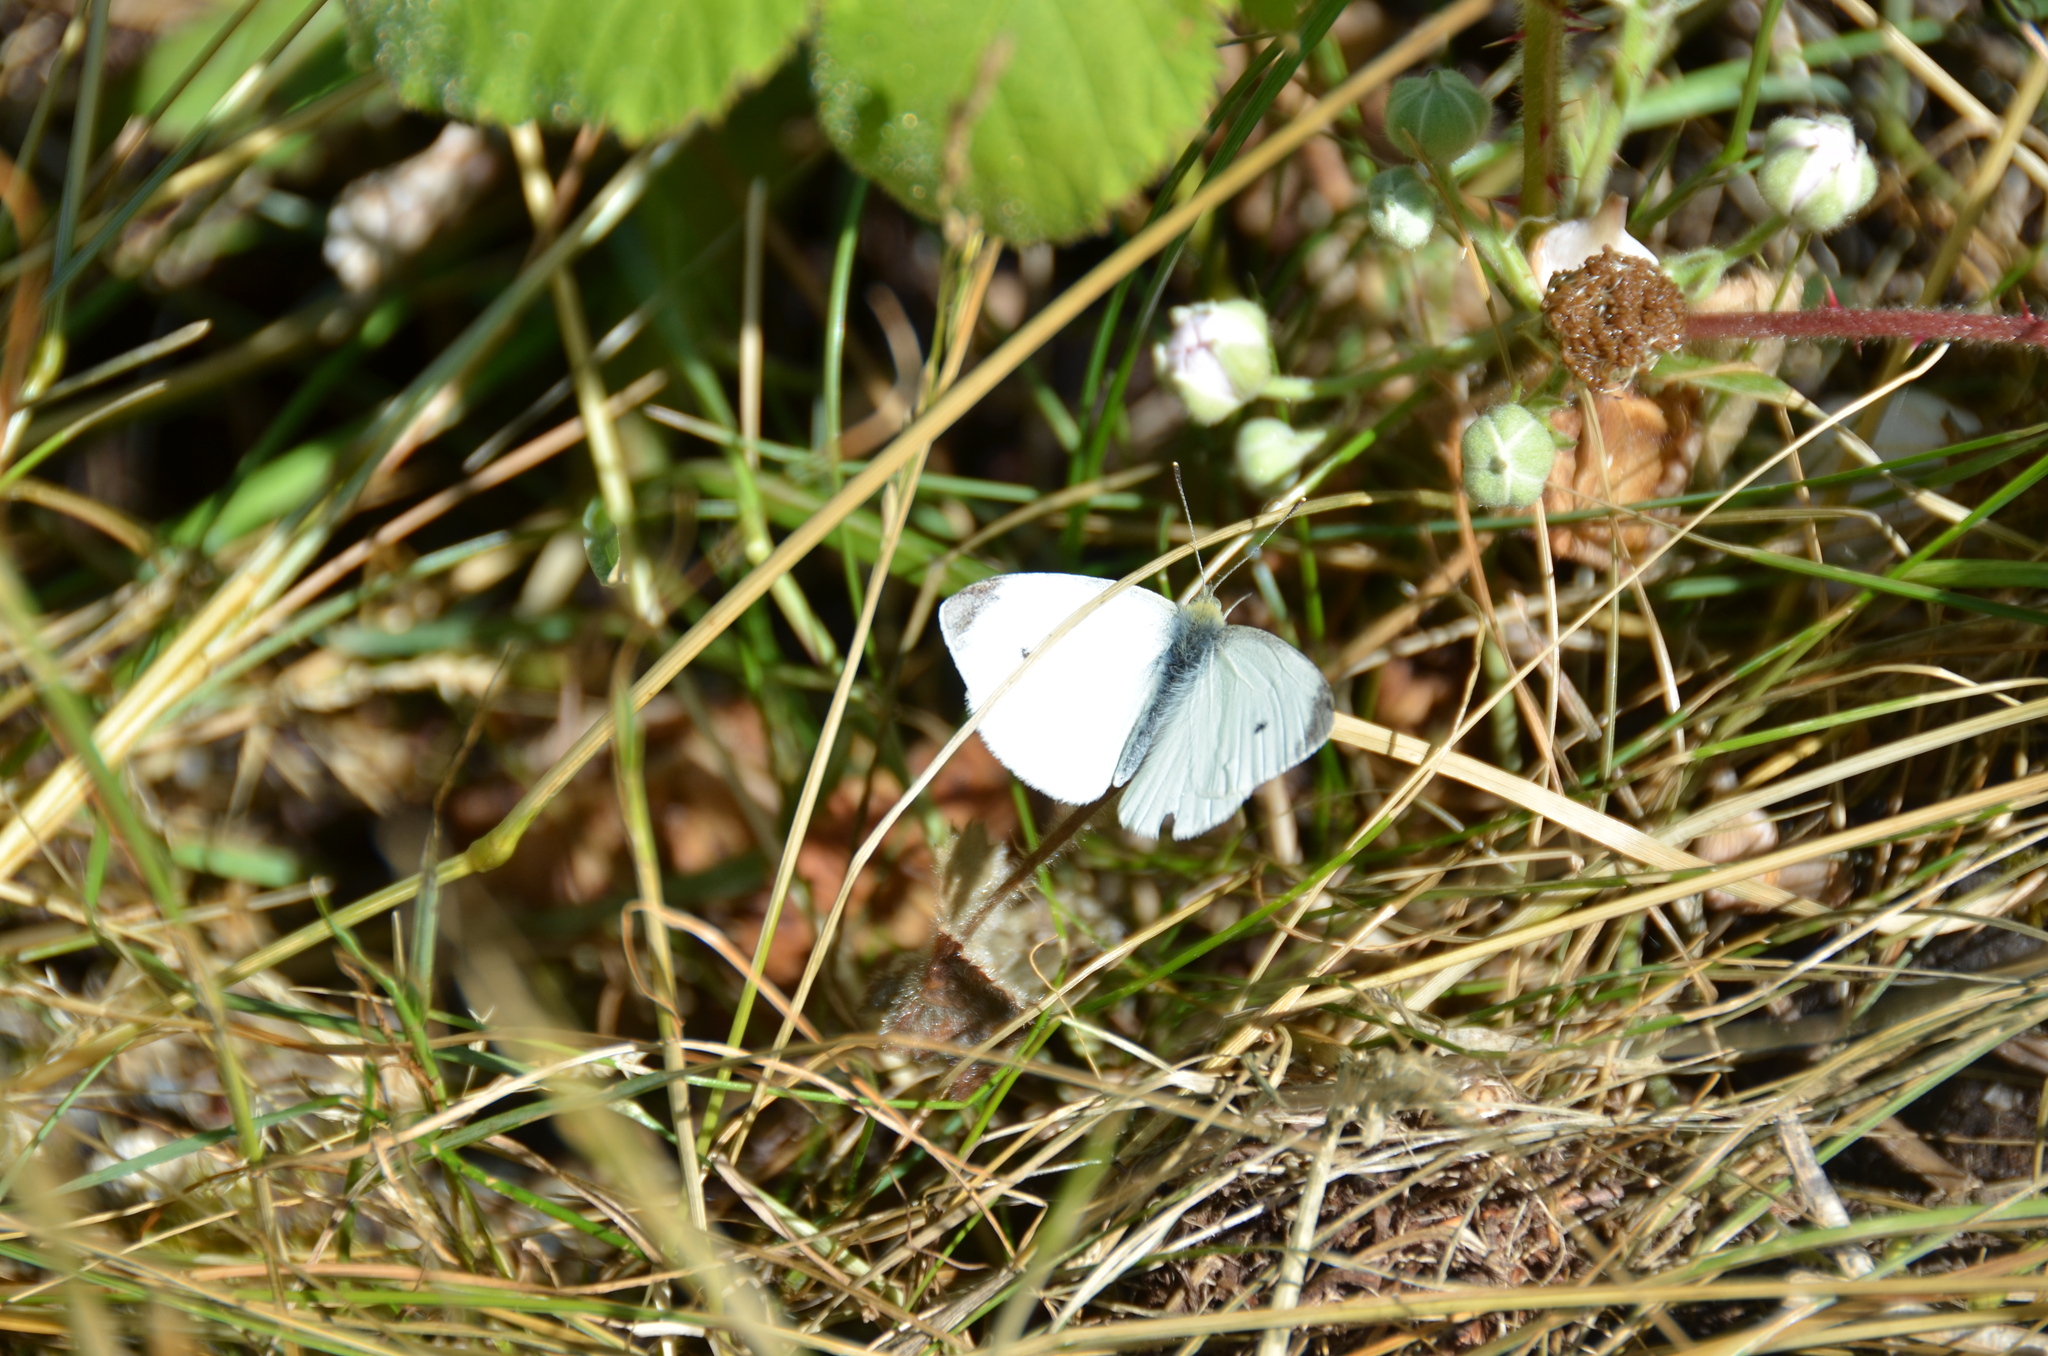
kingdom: Animalia
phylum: Arthropoda
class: Insecta
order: Lepidoptera
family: Pieridae
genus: Pieris
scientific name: Pieris rapae
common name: Small white
